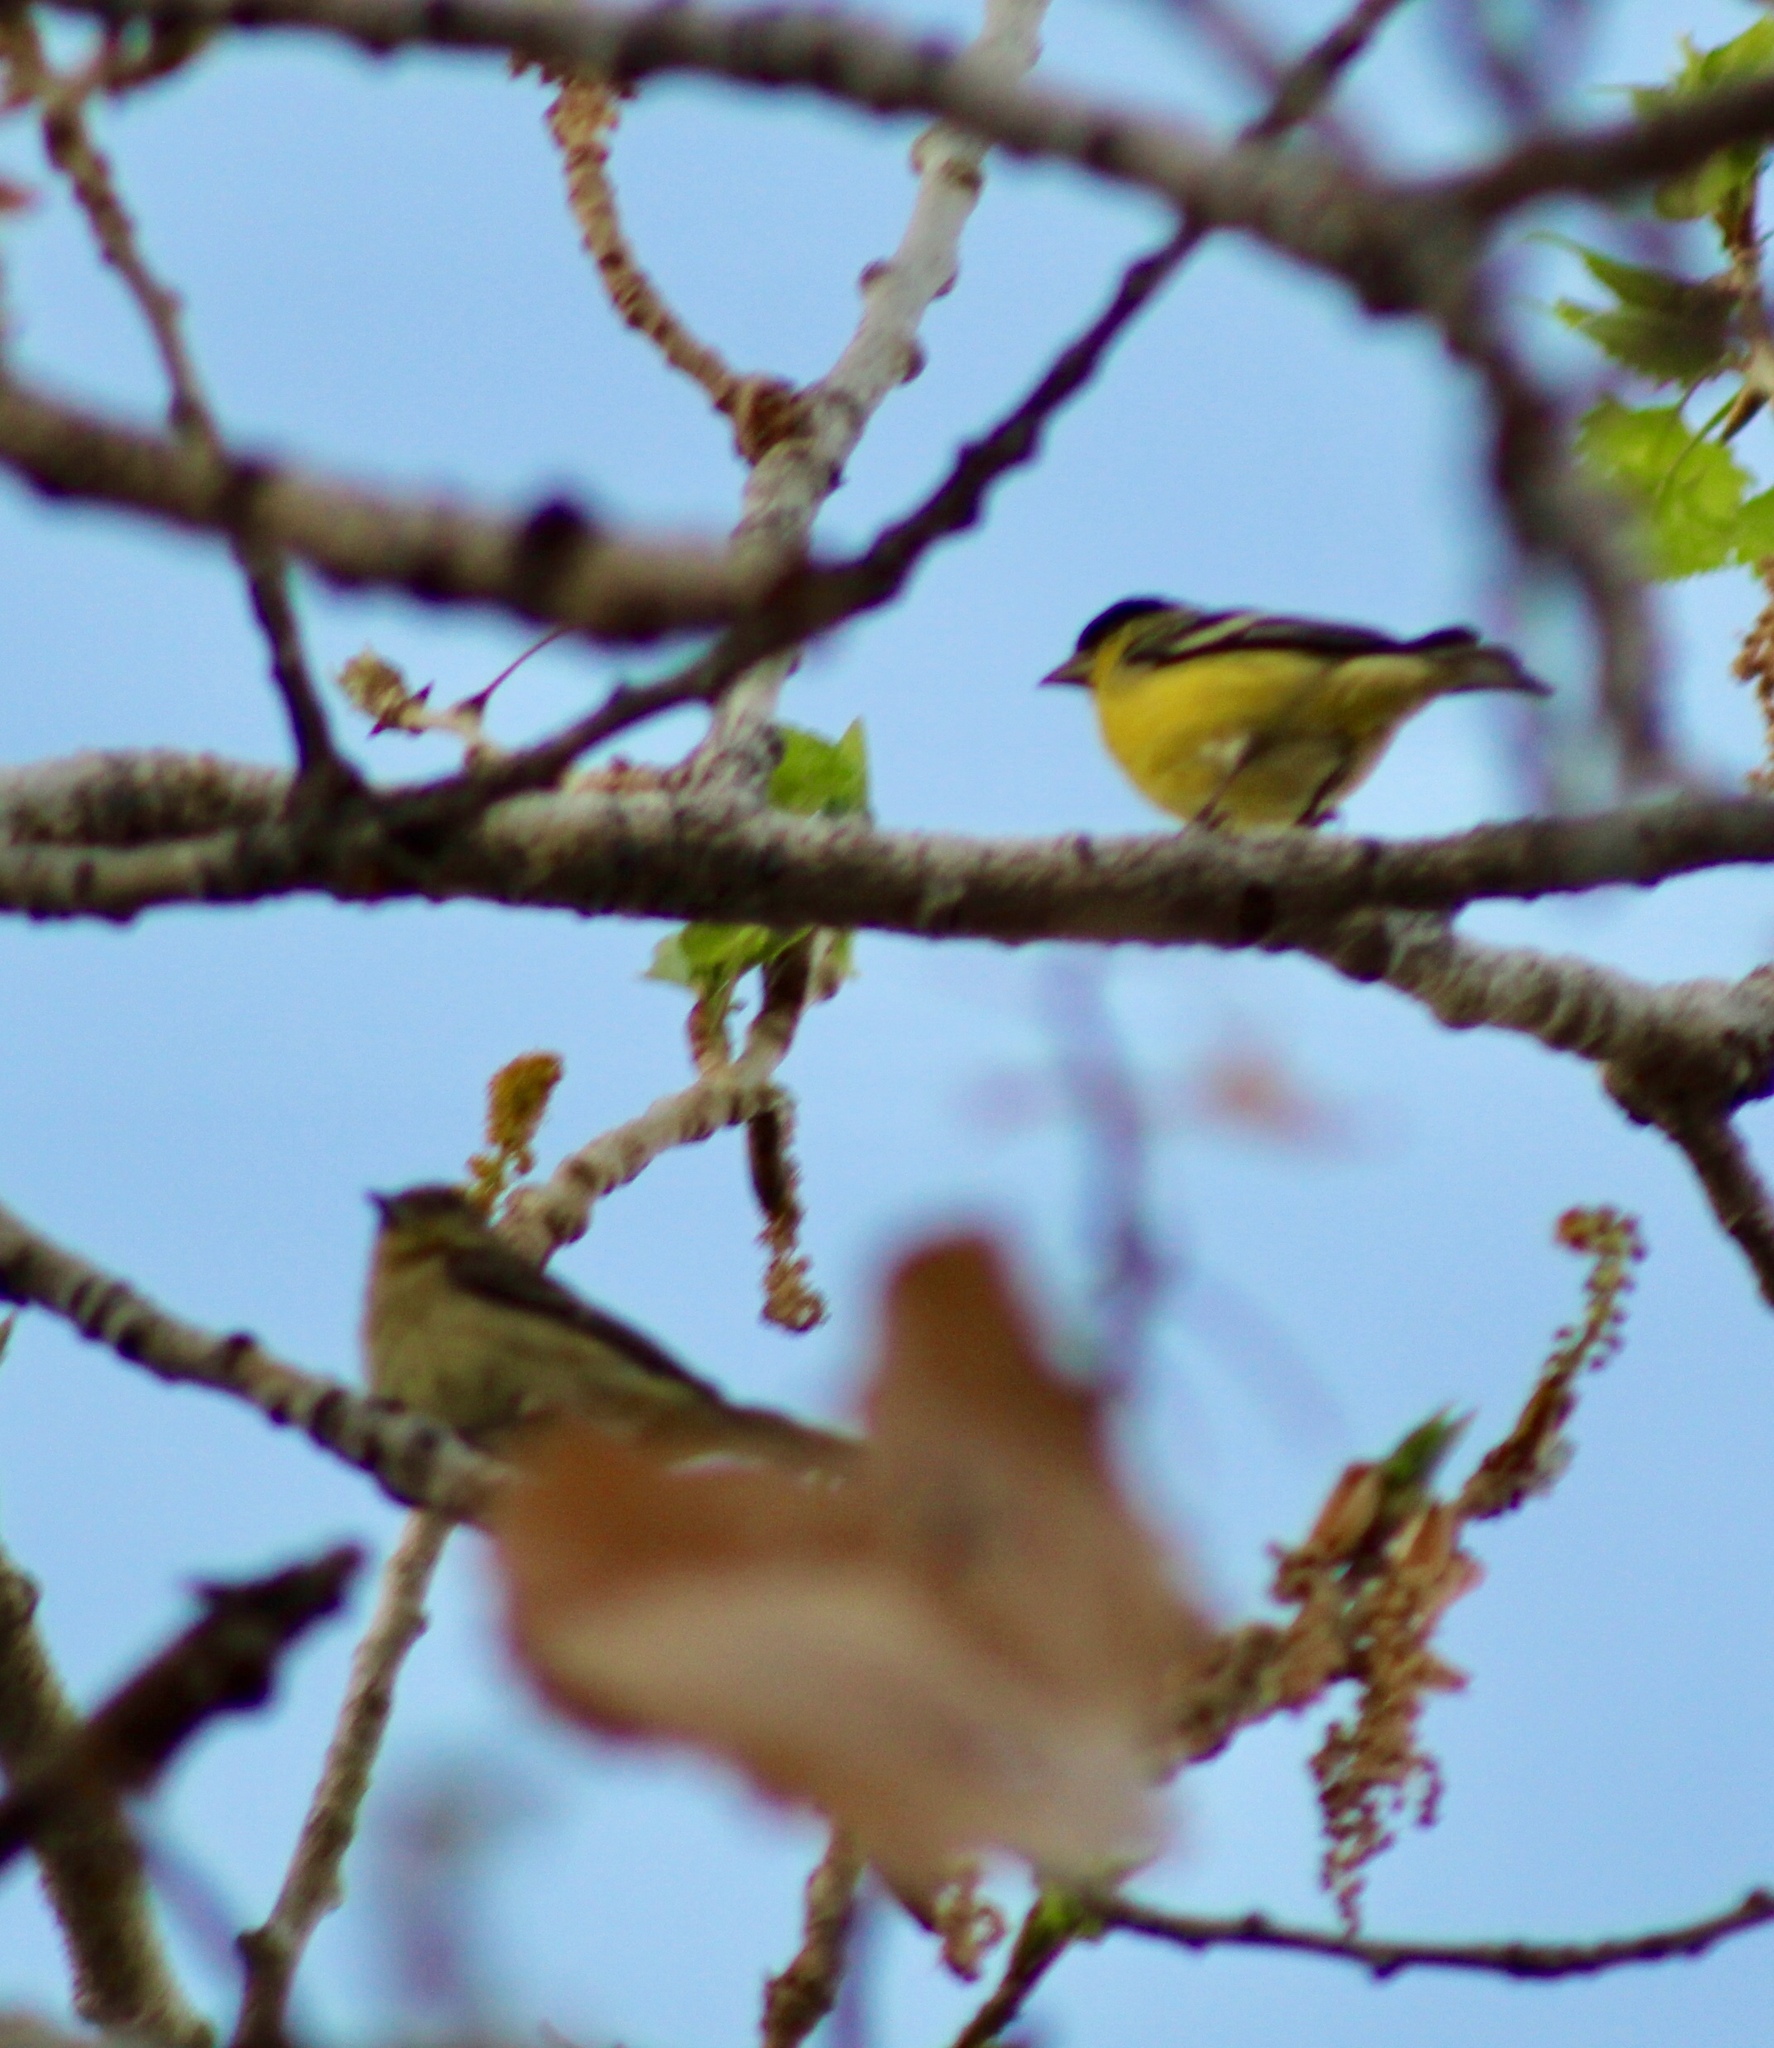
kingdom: Animalia
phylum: Chordata
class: Aves
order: Passeriformes
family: Fringillidae
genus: Spinus
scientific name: Spinus psaltria
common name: Lesser goldfinch
